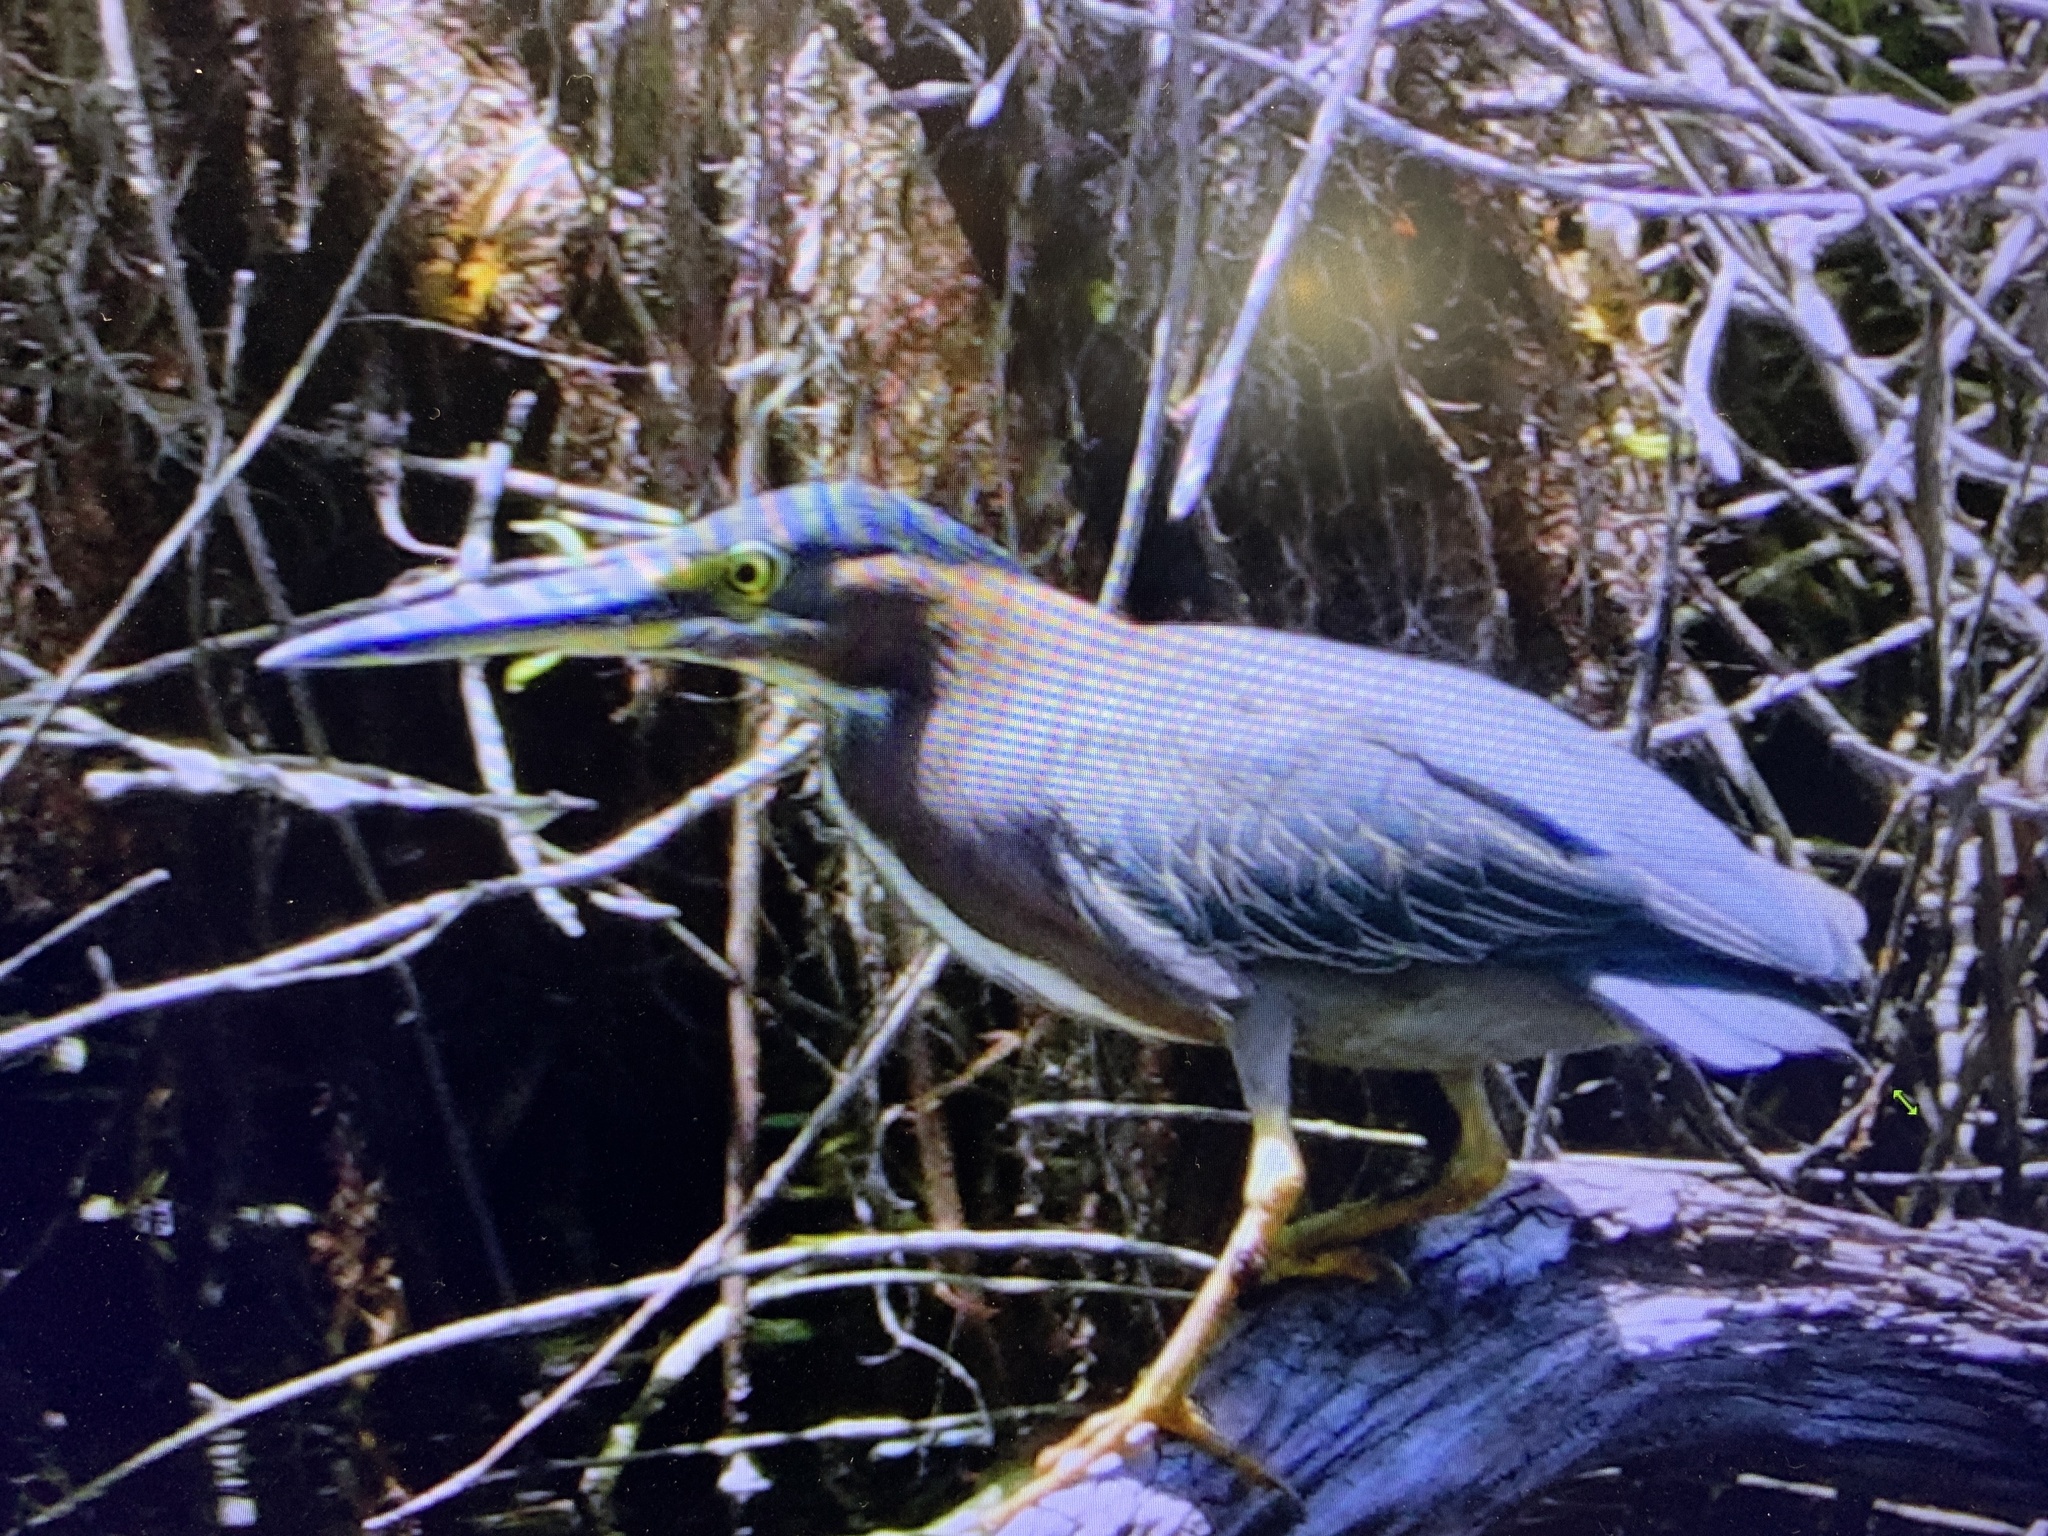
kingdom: Animalia
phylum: Chordata
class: Aves
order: Pelecaniformes
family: Ardeidae
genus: Butorides
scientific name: Butorides virescens
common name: Green heron
